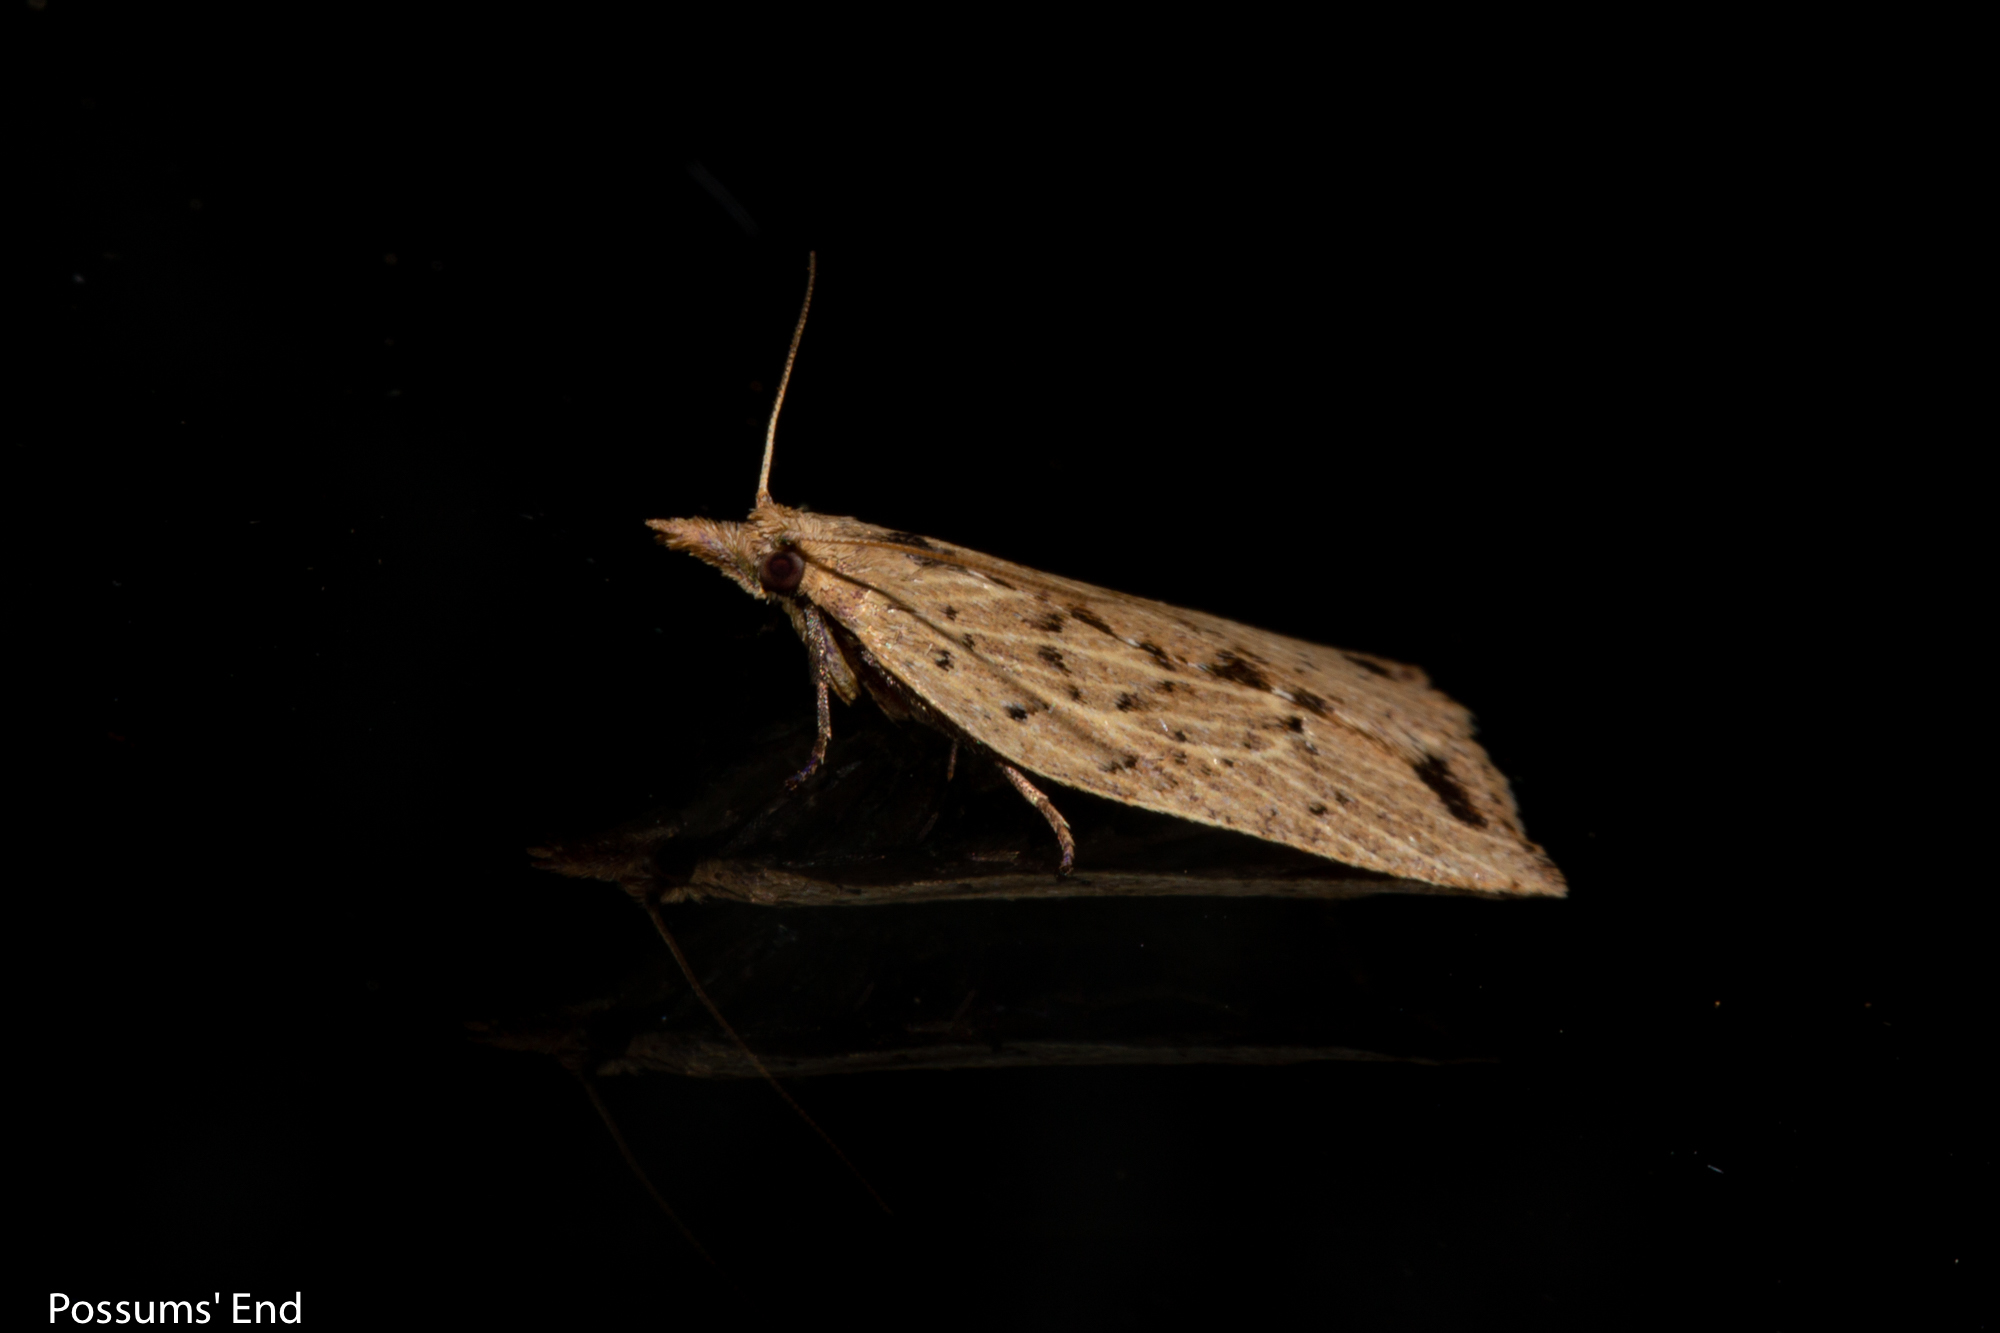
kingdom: Animalia
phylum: Arthropoda
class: Insecta
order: Lepidoptera
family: Tortricidae
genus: Planotortrix
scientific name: Planotortrix notophaea
